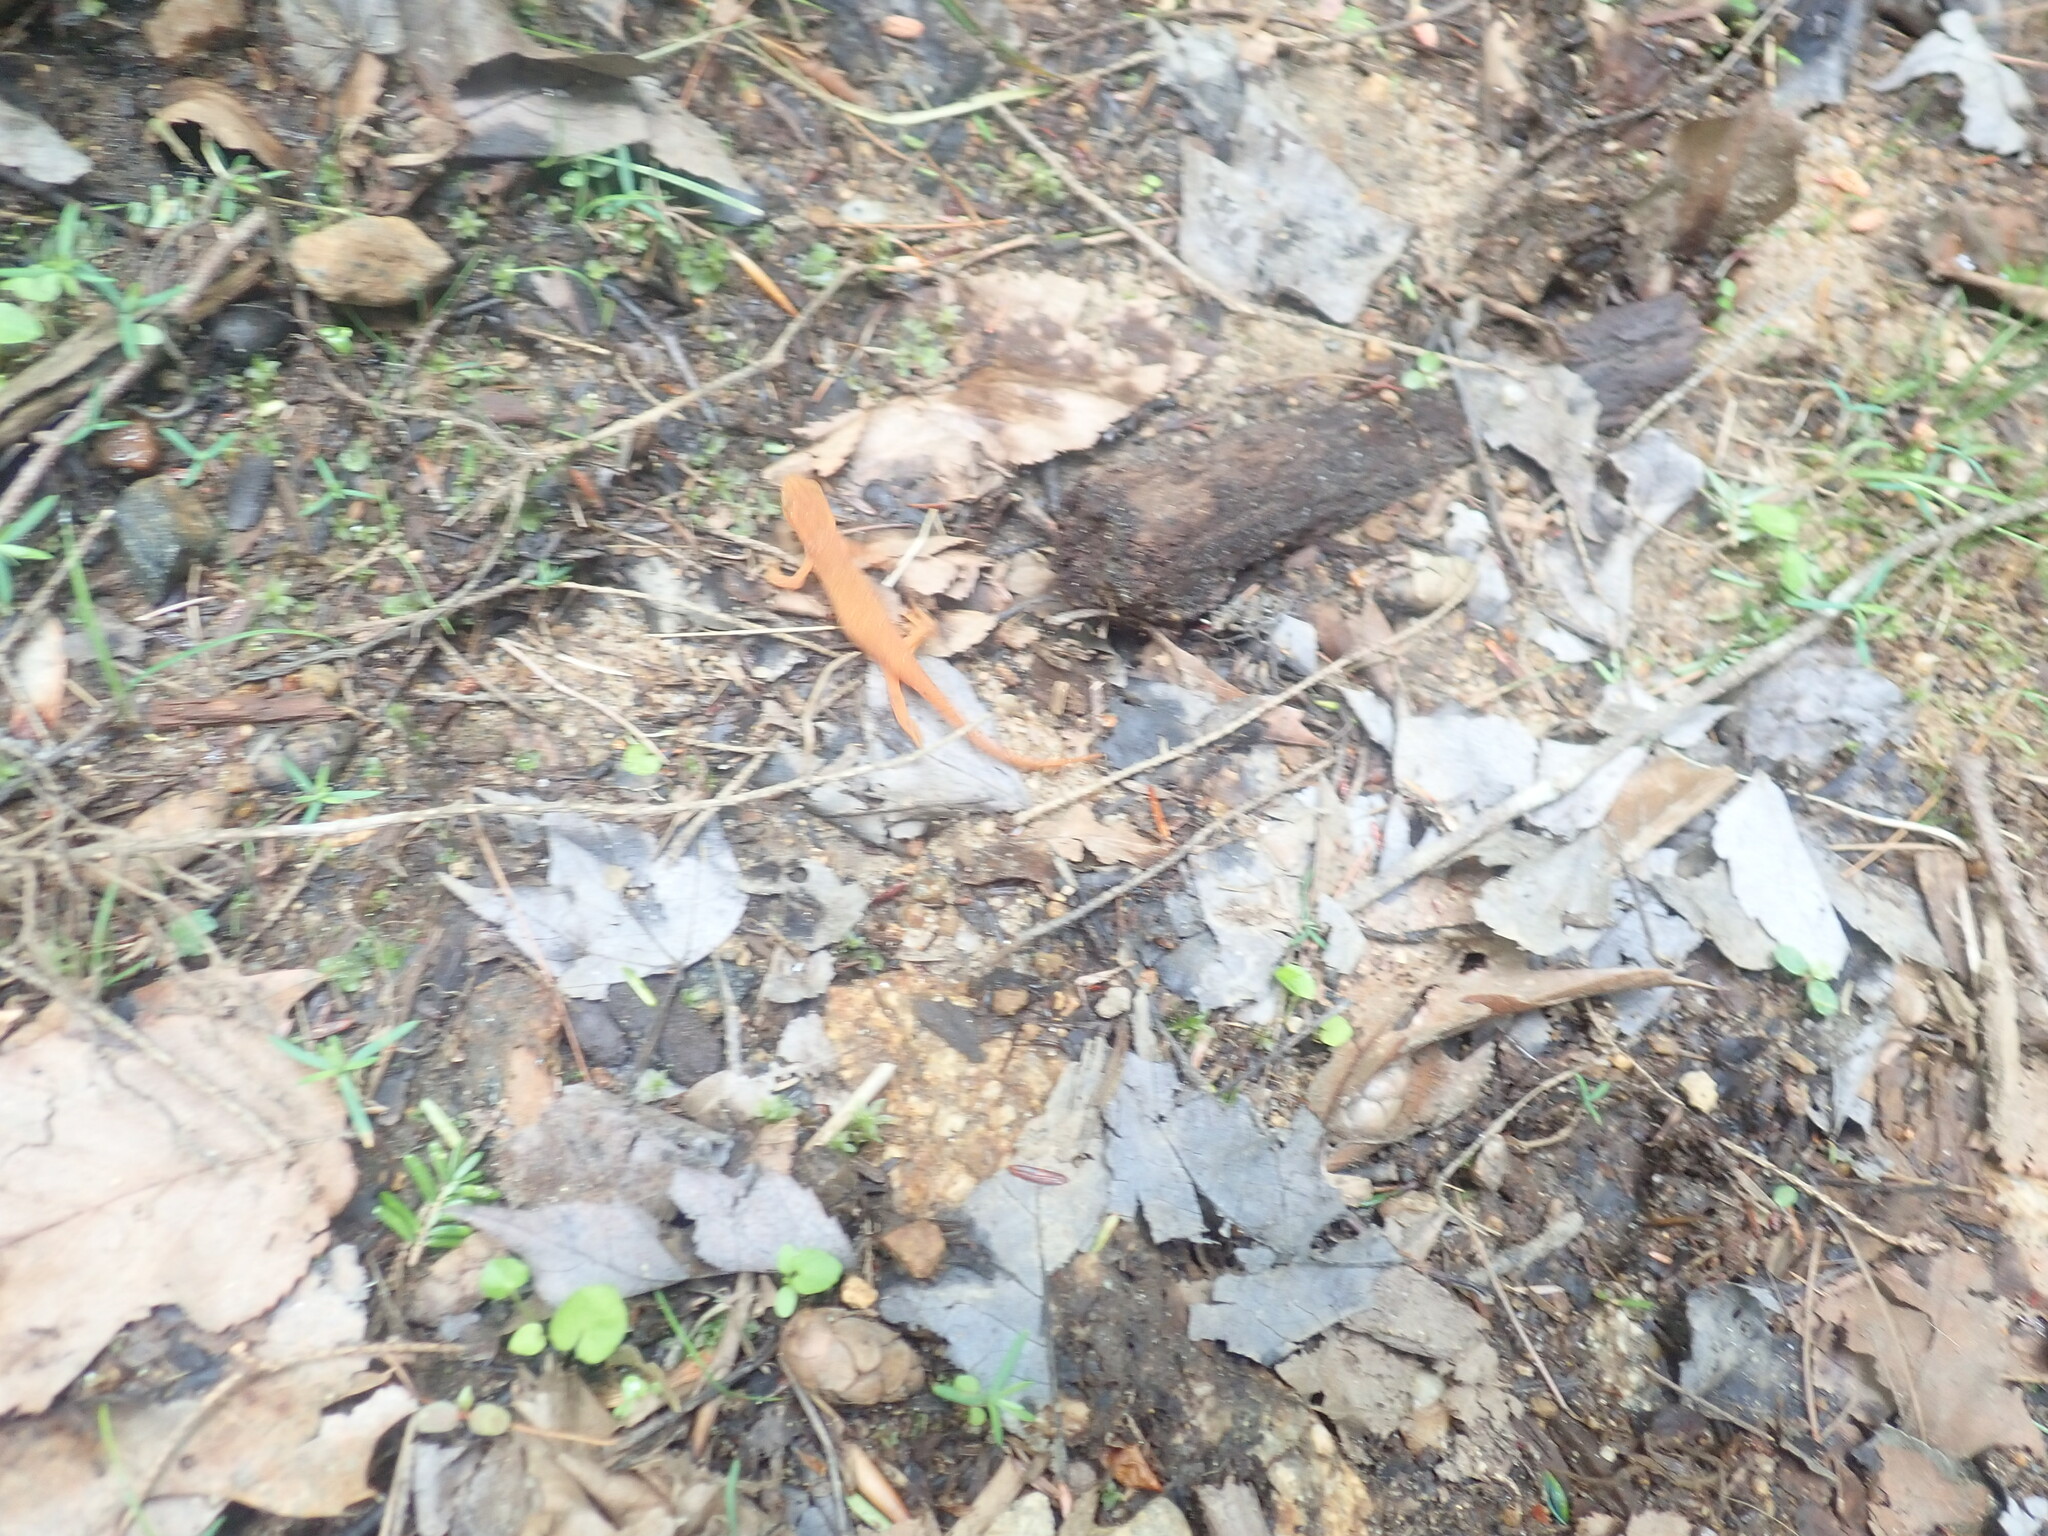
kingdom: Animalia
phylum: Chordata
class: Amphibia
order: Caudata
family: Salamandridae
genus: Notophthalmus
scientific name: Notophthalmus viridescens
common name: Eastern newt
